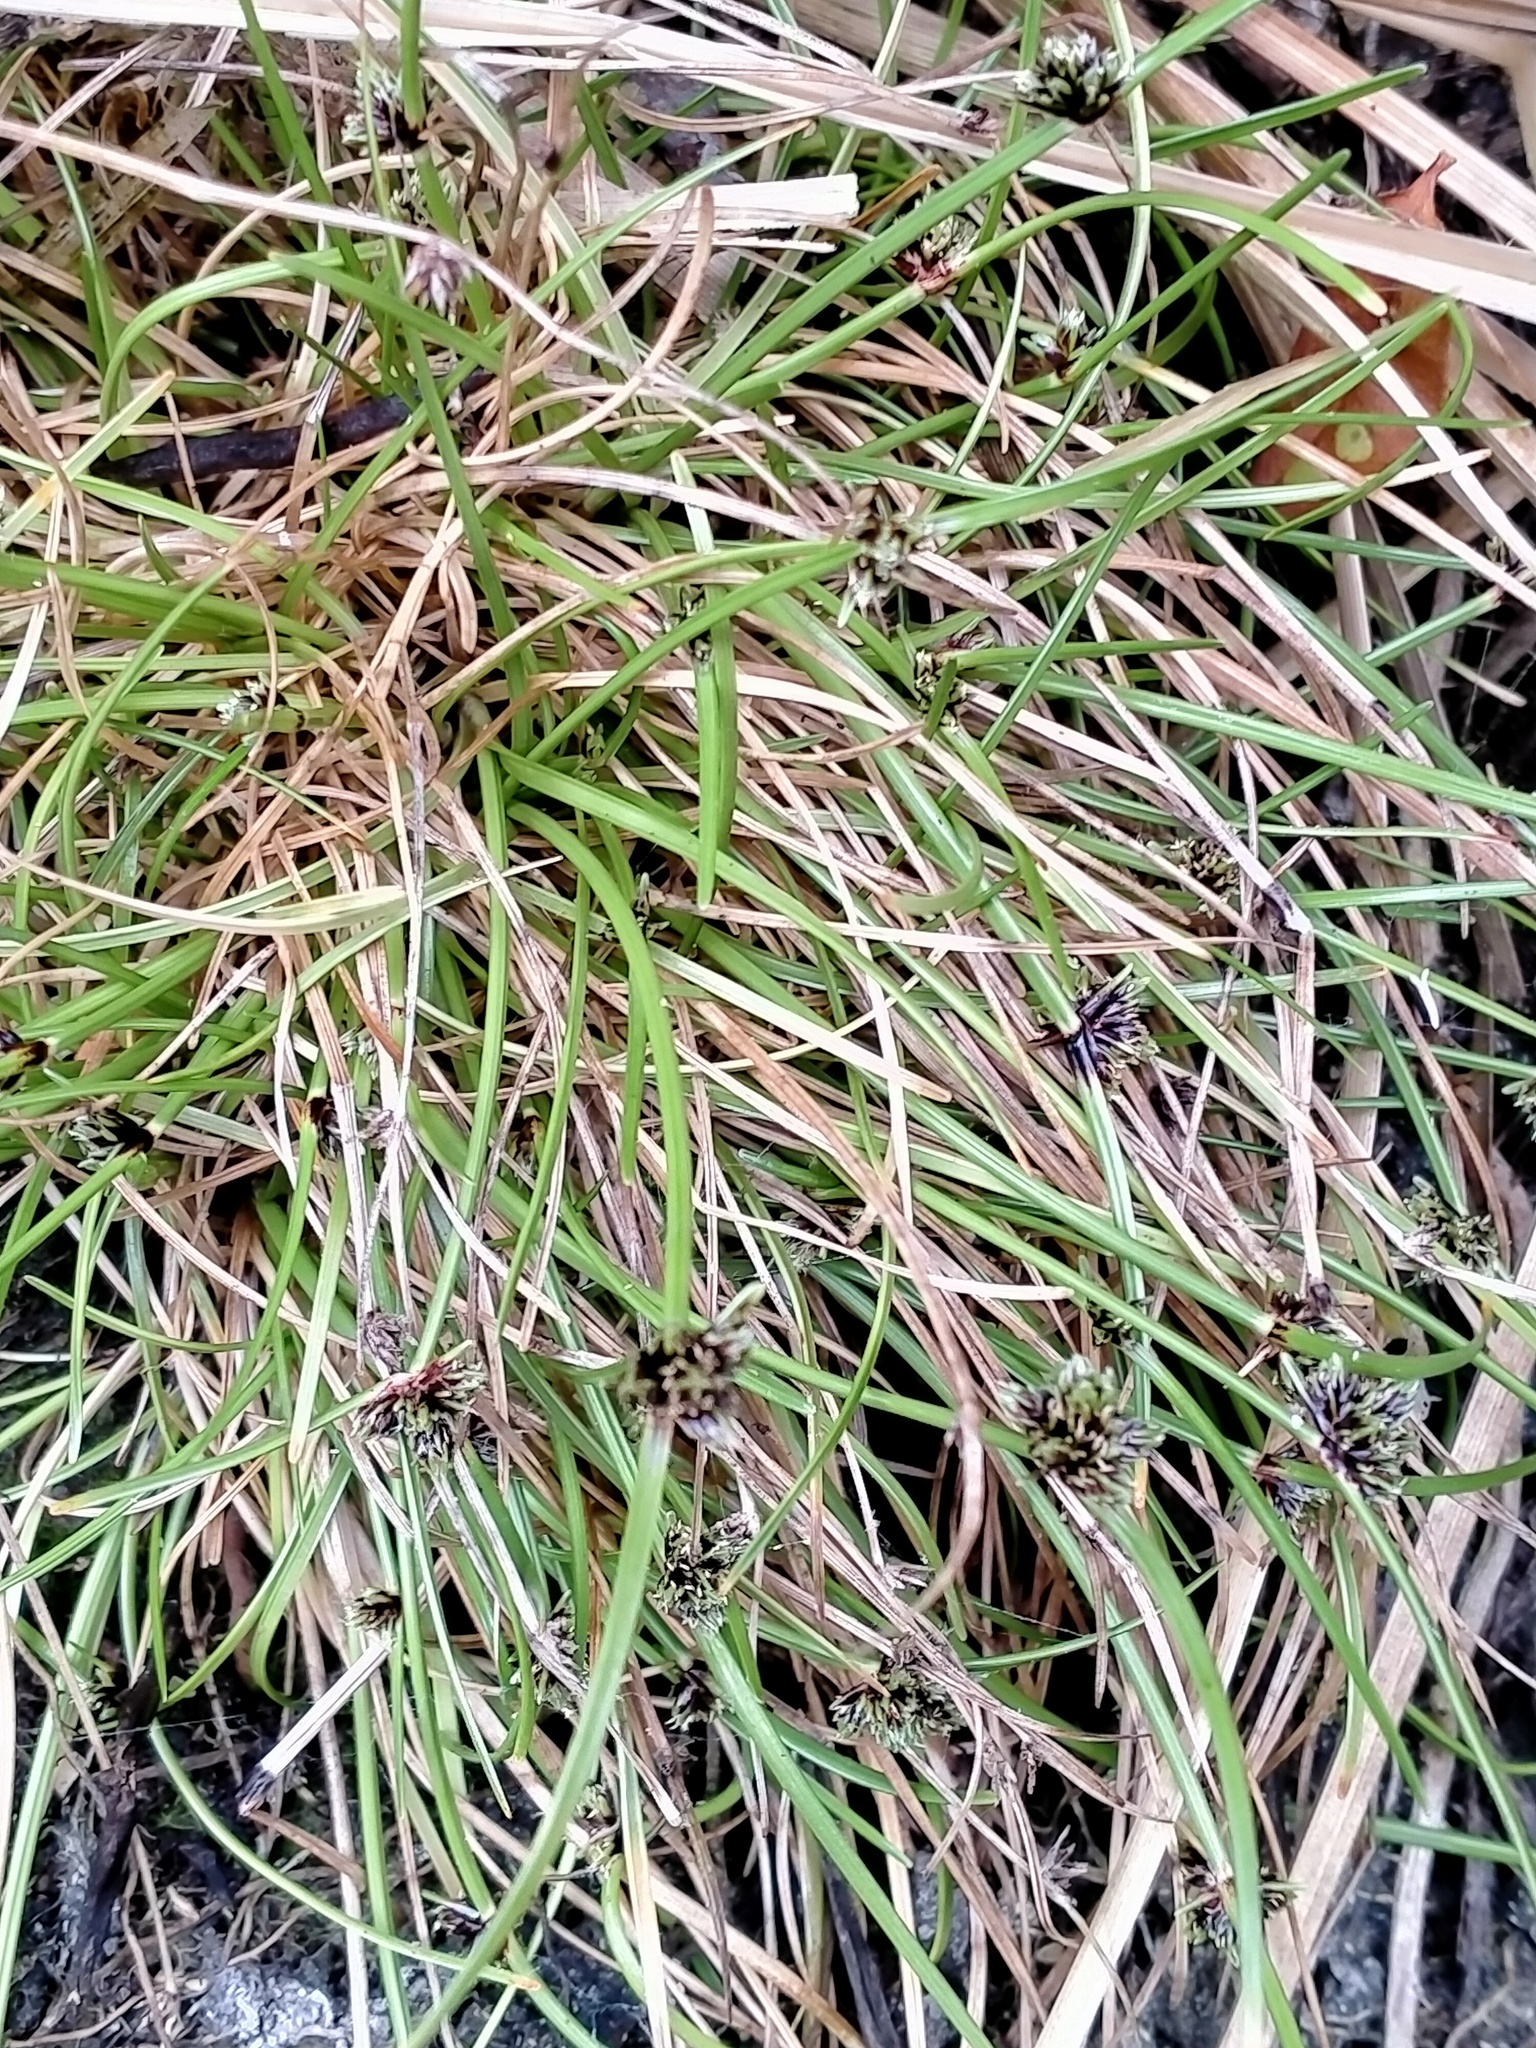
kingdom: Plantae
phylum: Tracheophyta
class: Liliopsida
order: Poales
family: Cyperaceae
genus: Isolepis
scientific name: Isolepis praetextata
